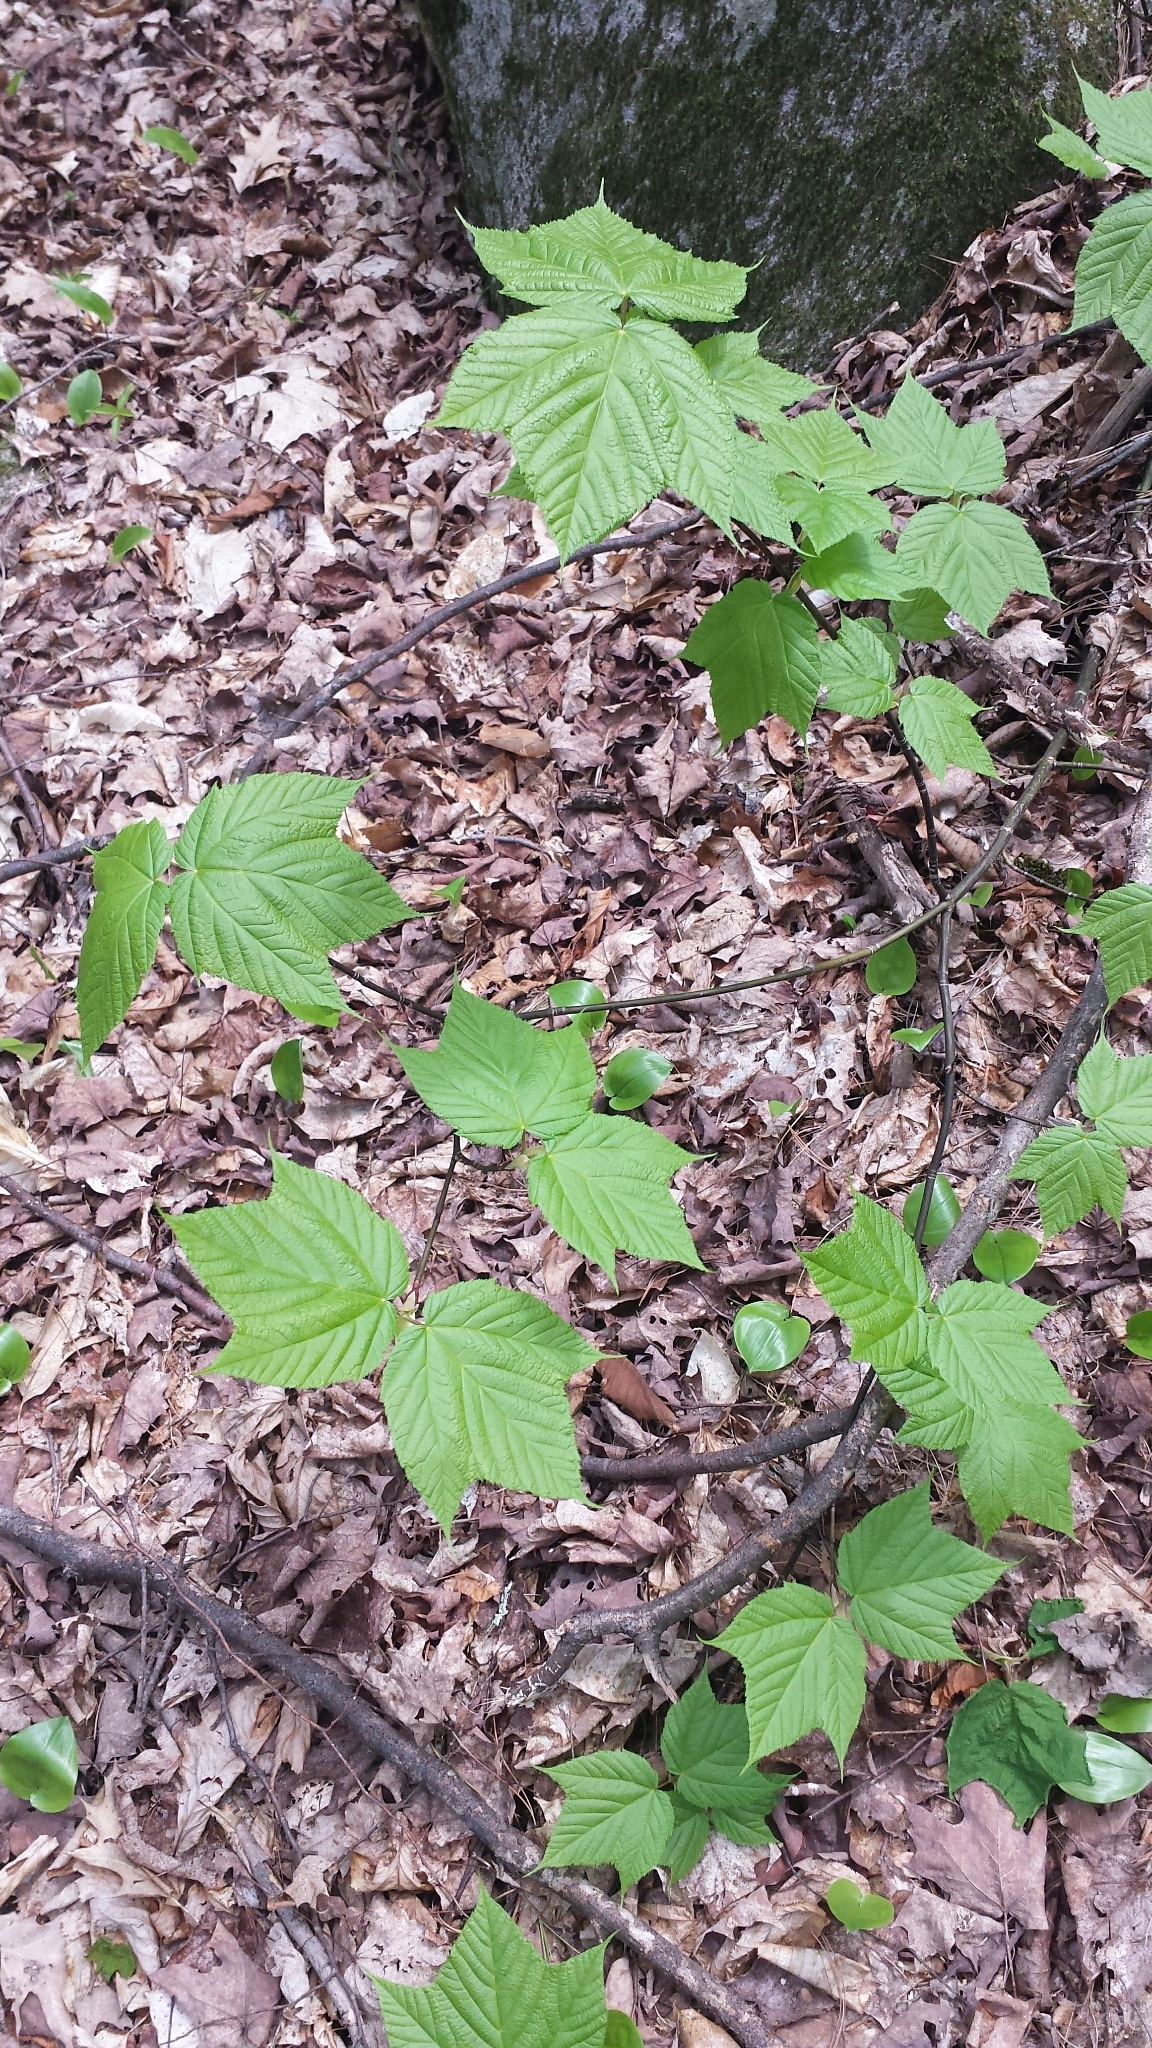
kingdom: Plantae
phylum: Tracheophyta
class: Magnoliopsida
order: Sapindales
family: Sapindaceae
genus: Acer
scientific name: Acer pensylvanicum
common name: Moosewood
